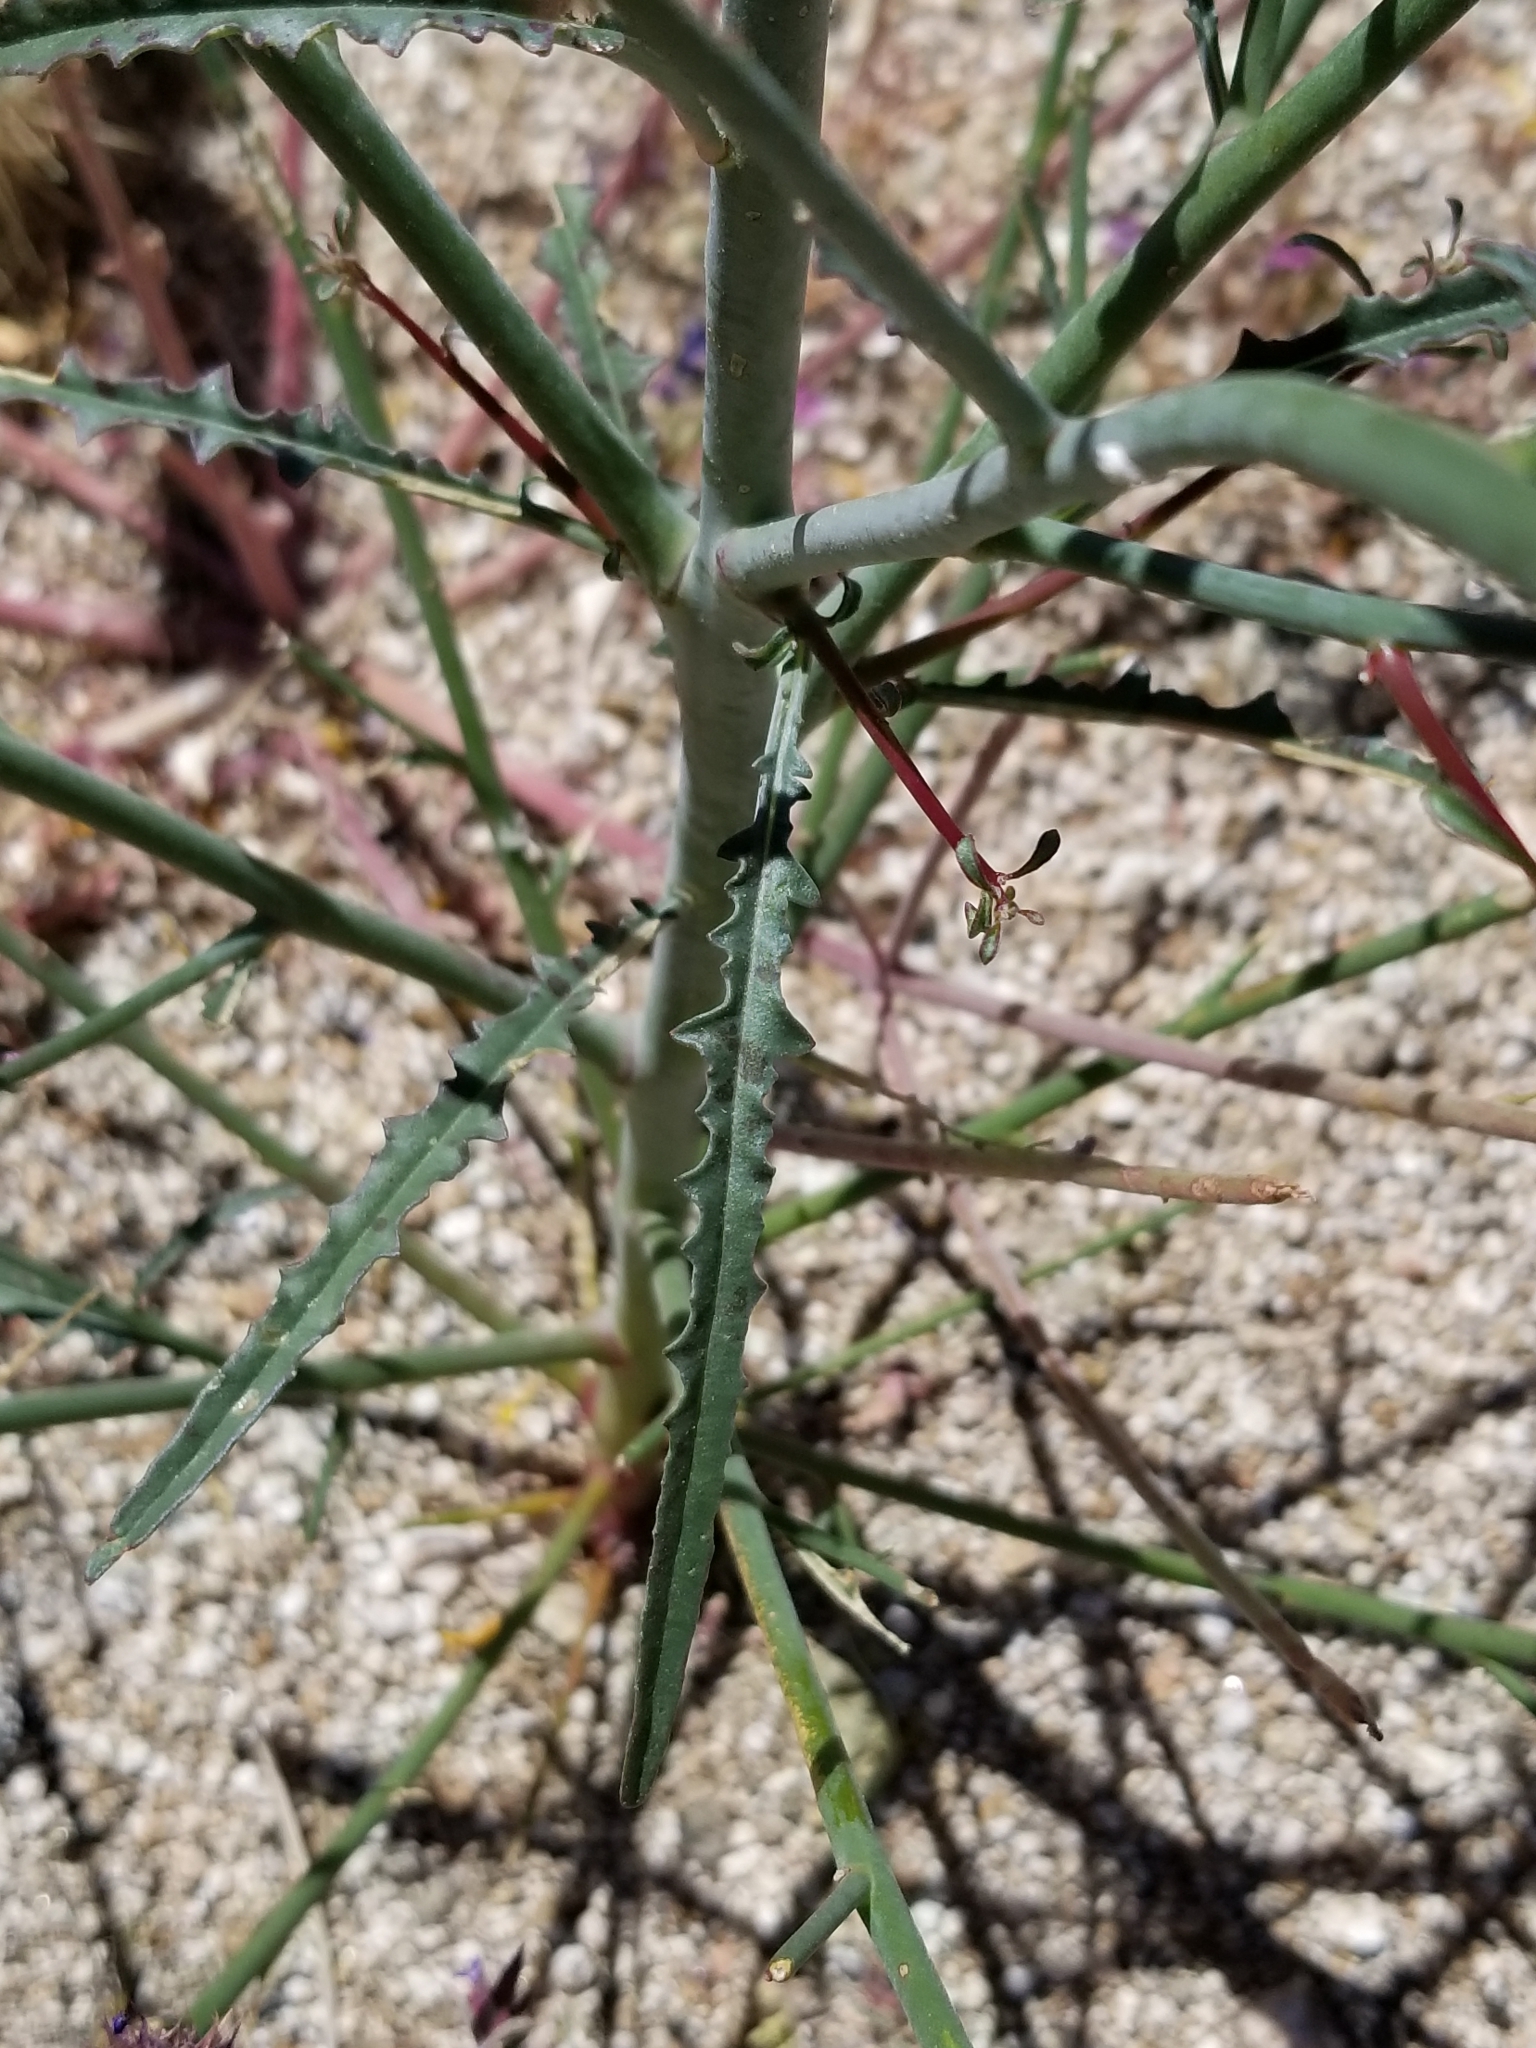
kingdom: Plantae
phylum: Tracheophyta
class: Magnoliopsida
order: Myrtales
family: Onagraceae
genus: Eulobus
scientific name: Eulobus californicus
